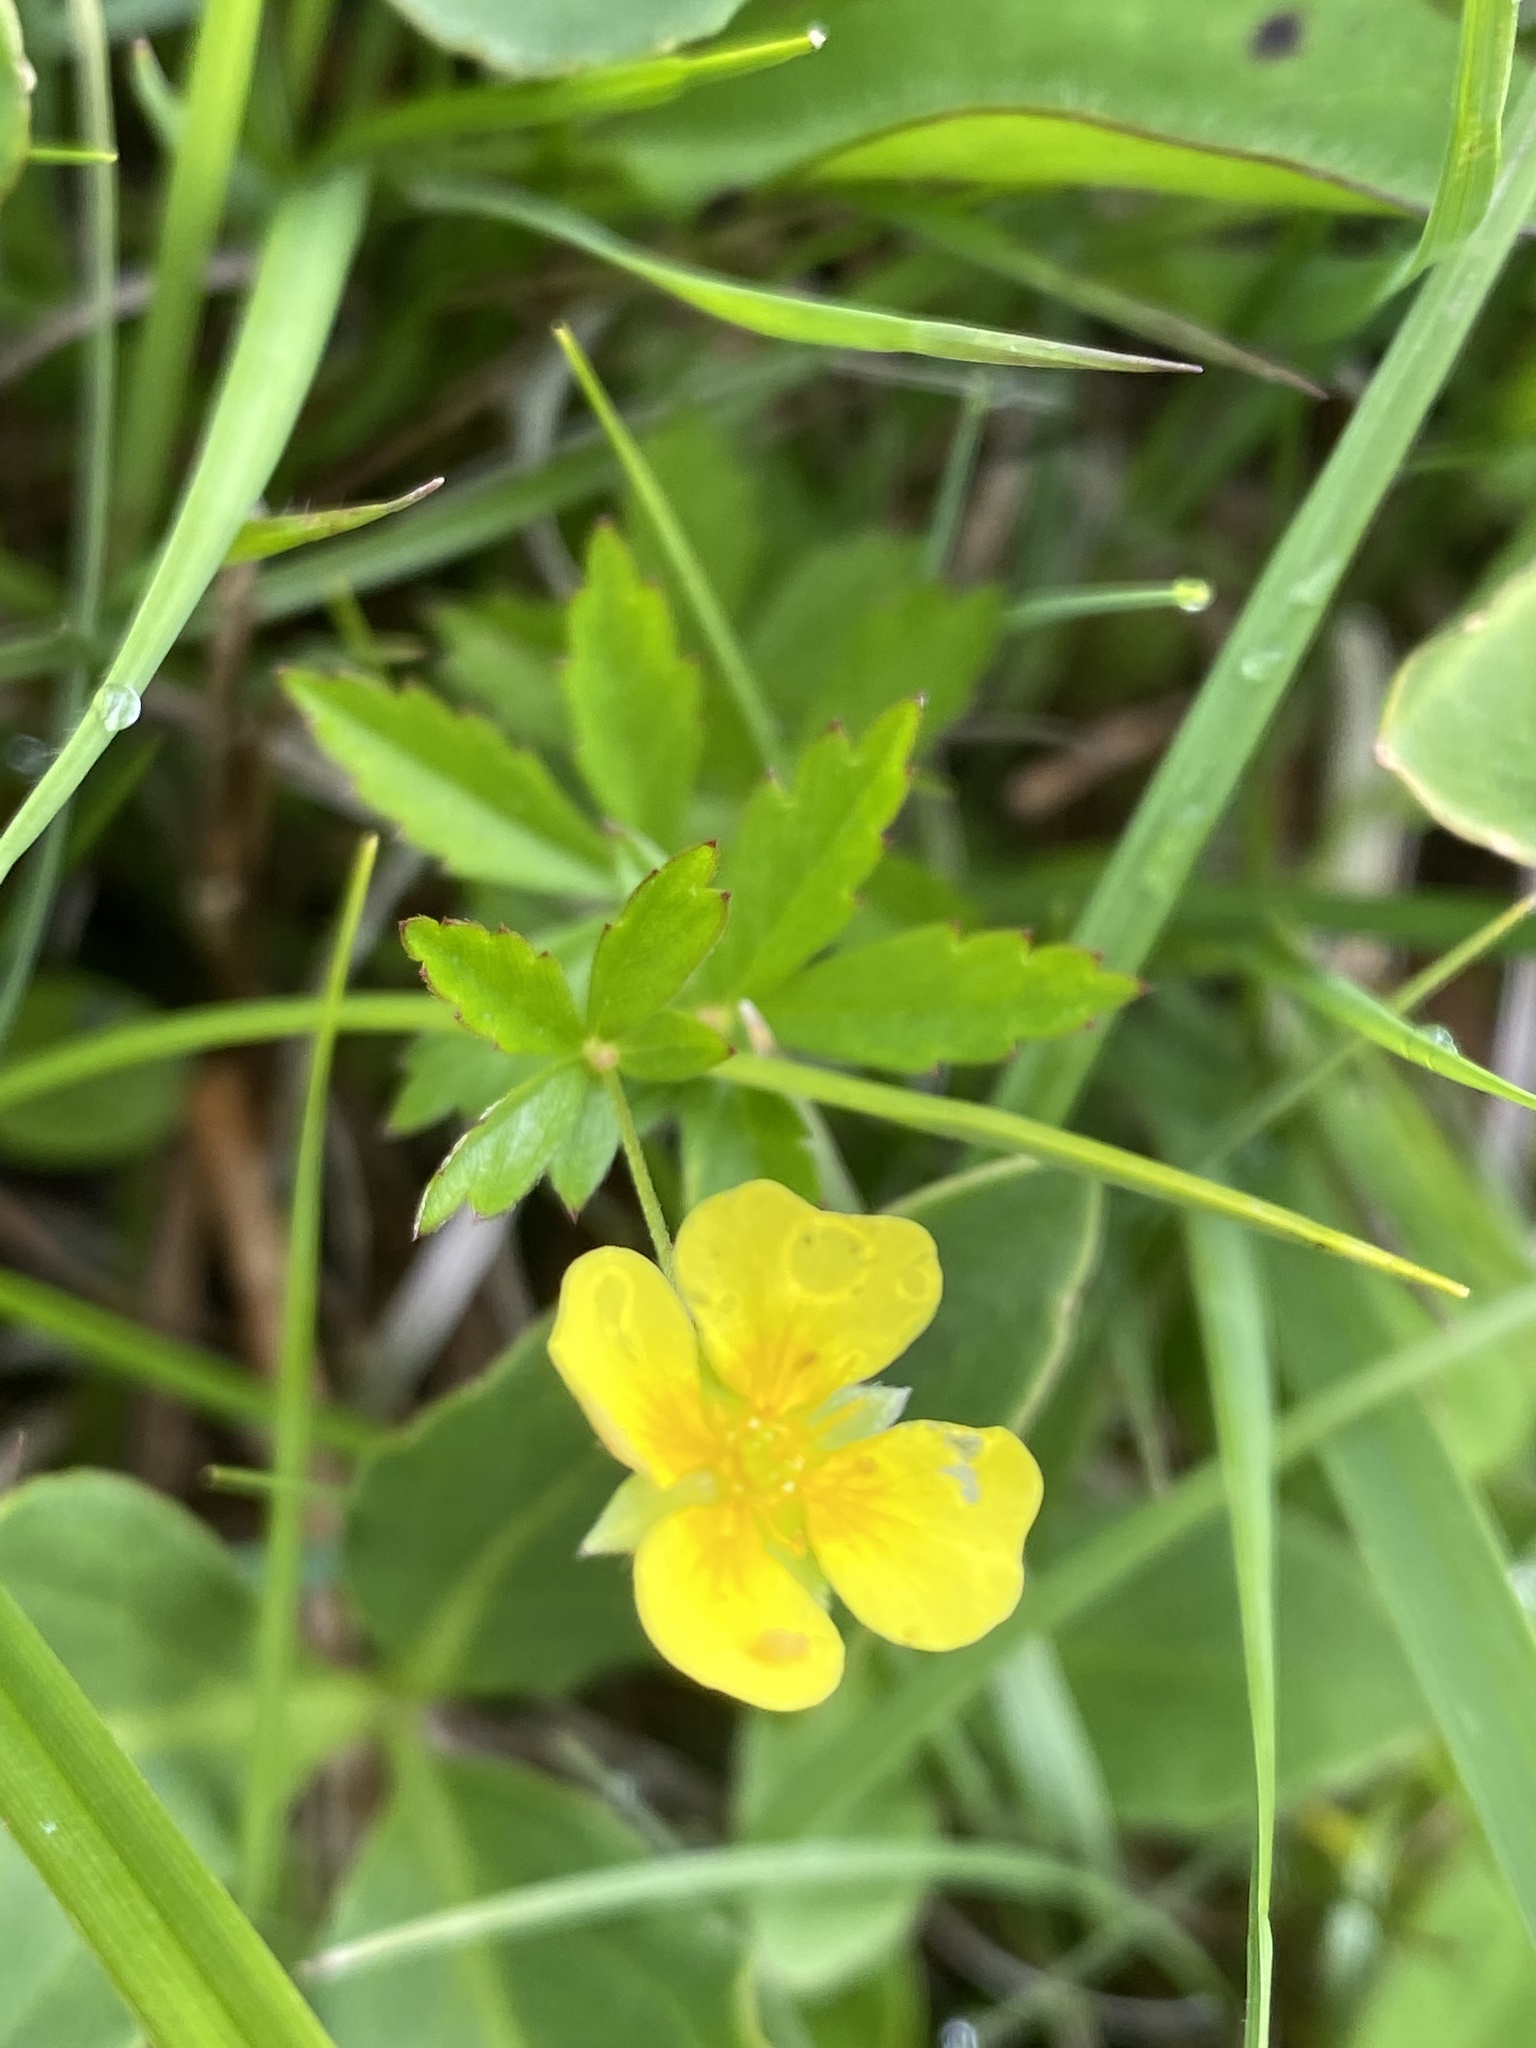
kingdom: Plantae
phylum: Tracheophyta
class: Magnoliopsida
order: Rosales
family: Rosaceae
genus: Potentilla
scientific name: Potentilla erecta
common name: Tormentil
